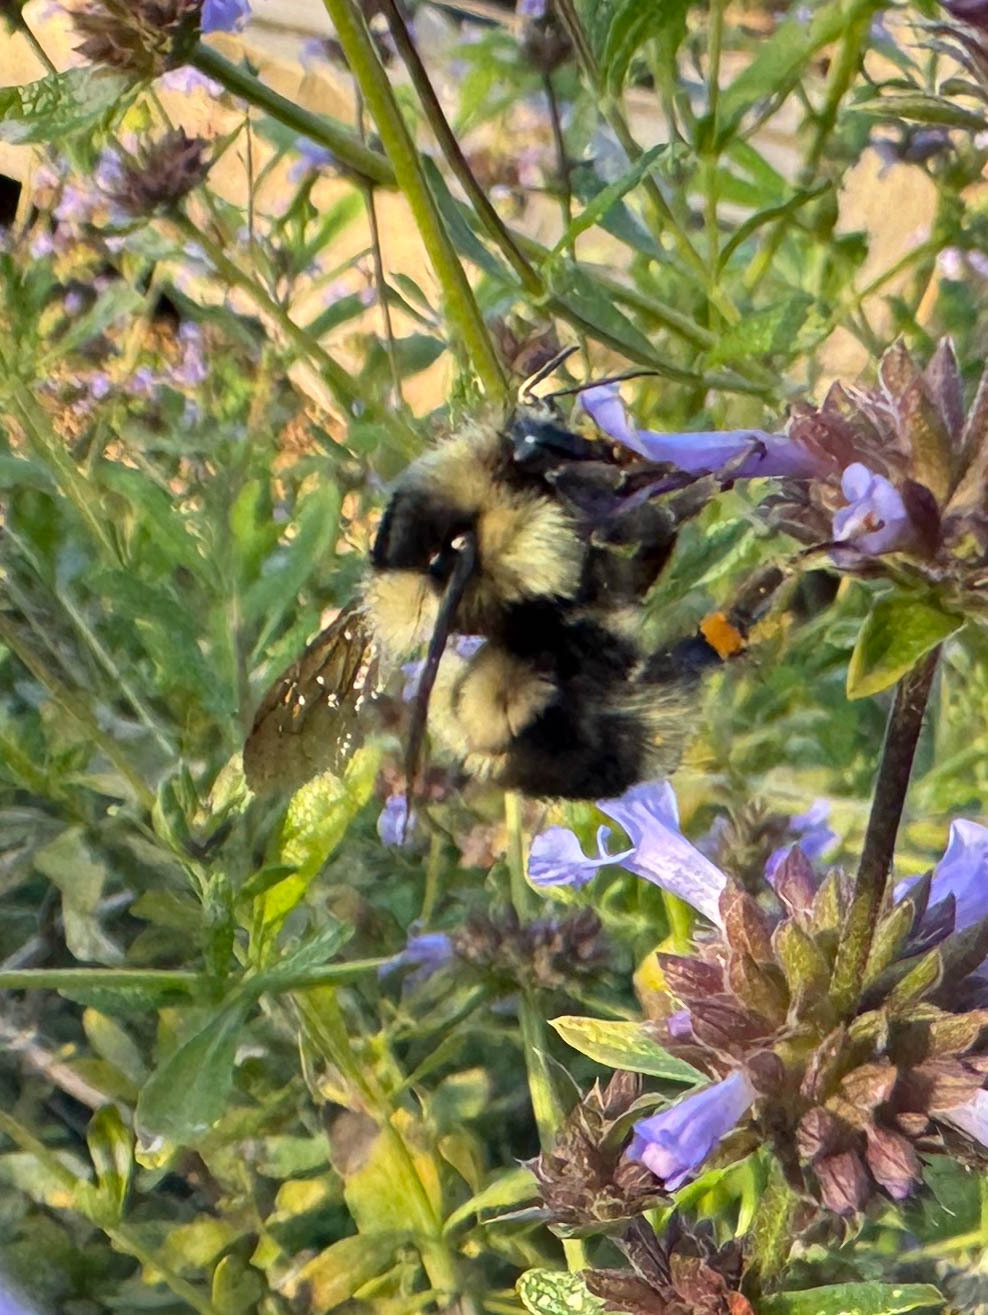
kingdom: Animalia
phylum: Arthropoda
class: Insecta
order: Hymenoptera
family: Apidae
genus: Bombus
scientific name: Bombus melanopygus
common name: Black tail bumble bee
